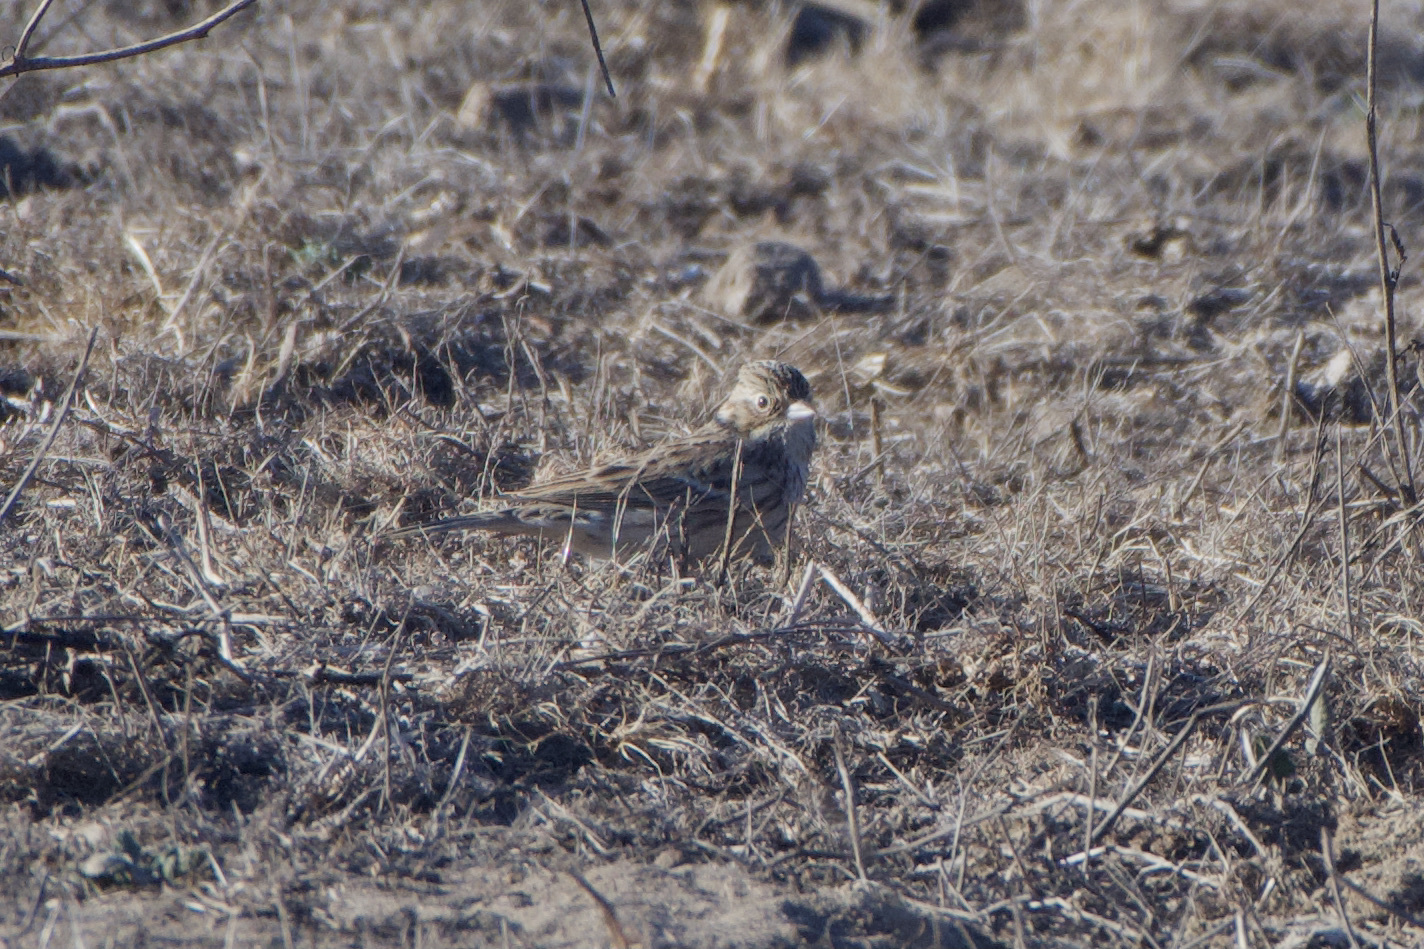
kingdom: Animalia
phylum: Chordata
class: Aves
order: Passeriformes
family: Passerellidae
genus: Pooecetes
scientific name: Pooecetes gramineus
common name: Vesper sparrow
